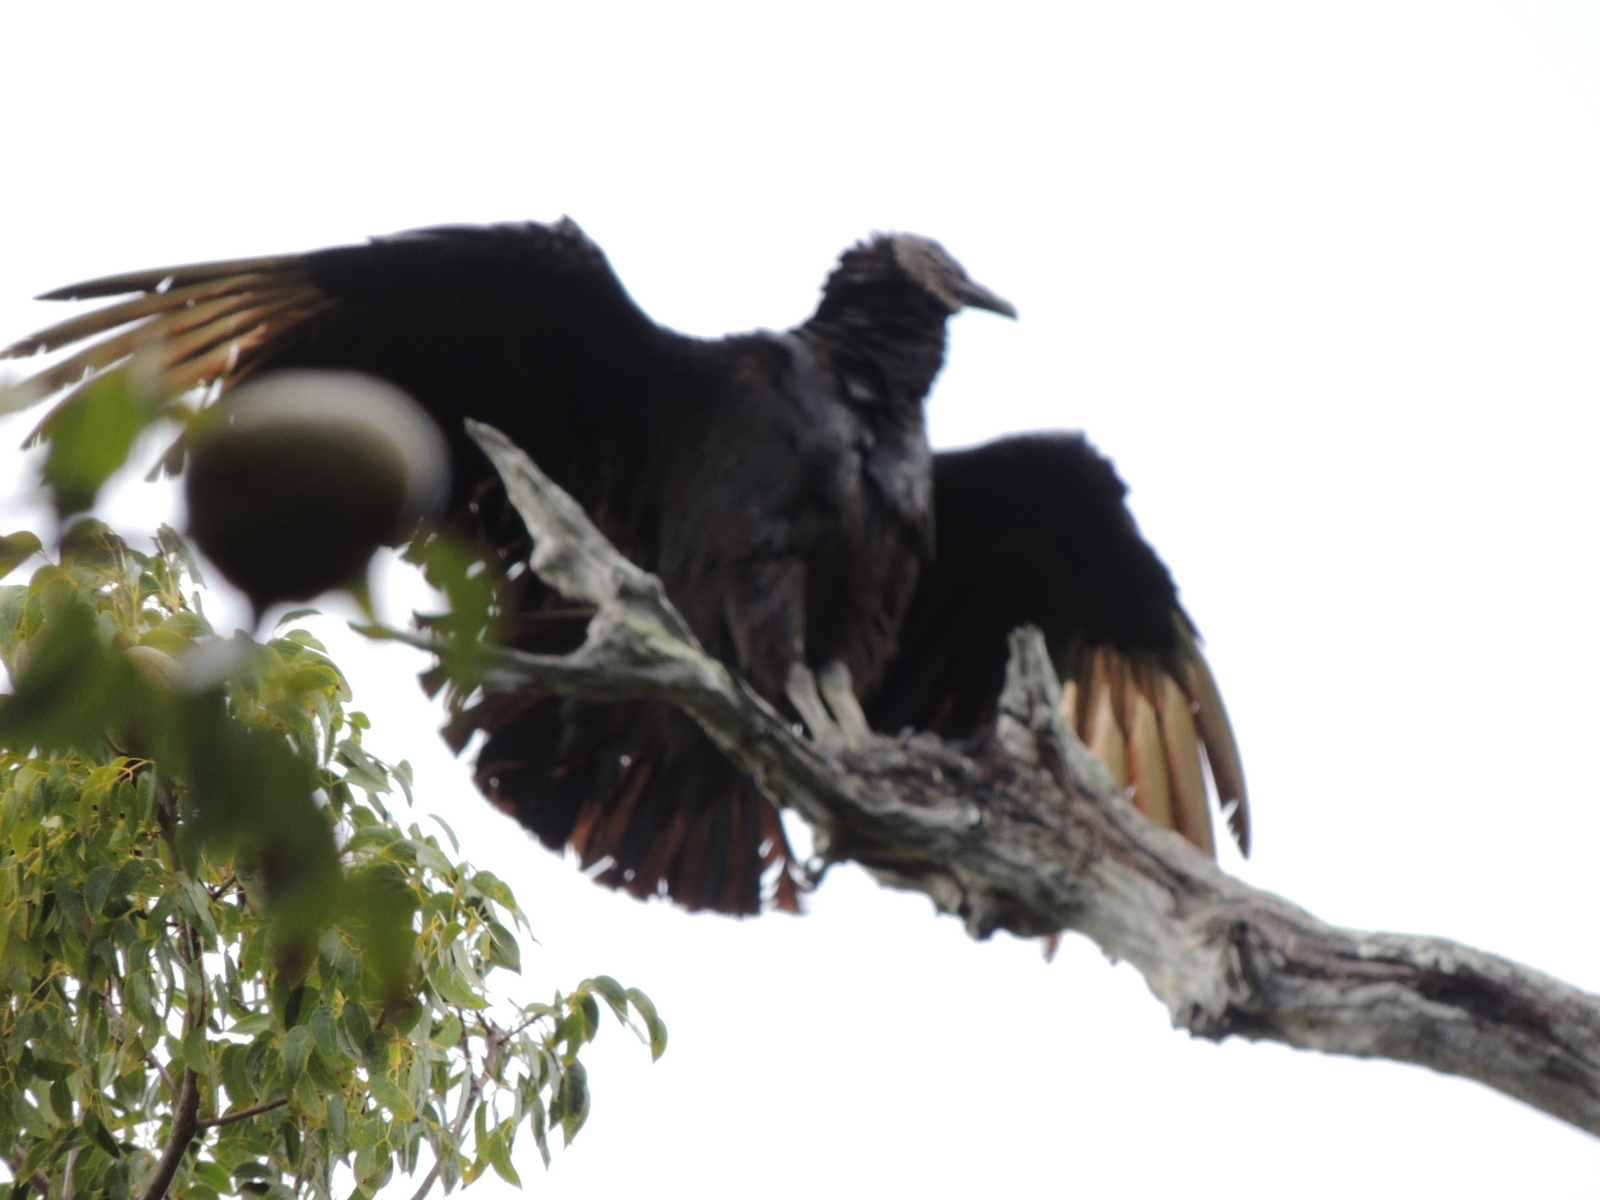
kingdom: Animalia
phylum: Chordata
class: Aves
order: Accipitriformes
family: Cathartidae
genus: Coragyps
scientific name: Coragyps atratus
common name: Black vulture
